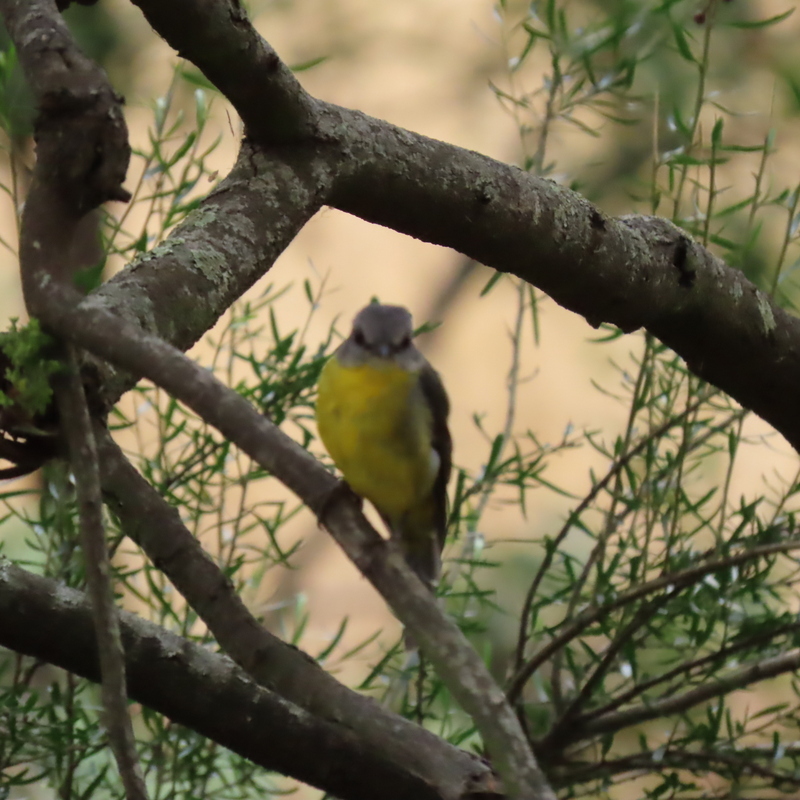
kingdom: Animalia
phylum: Chordata
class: Aves
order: Passeriformes
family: Petroicidae
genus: Eopsaltria
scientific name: Eopsaltria australis
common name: Eastern yellow robin
